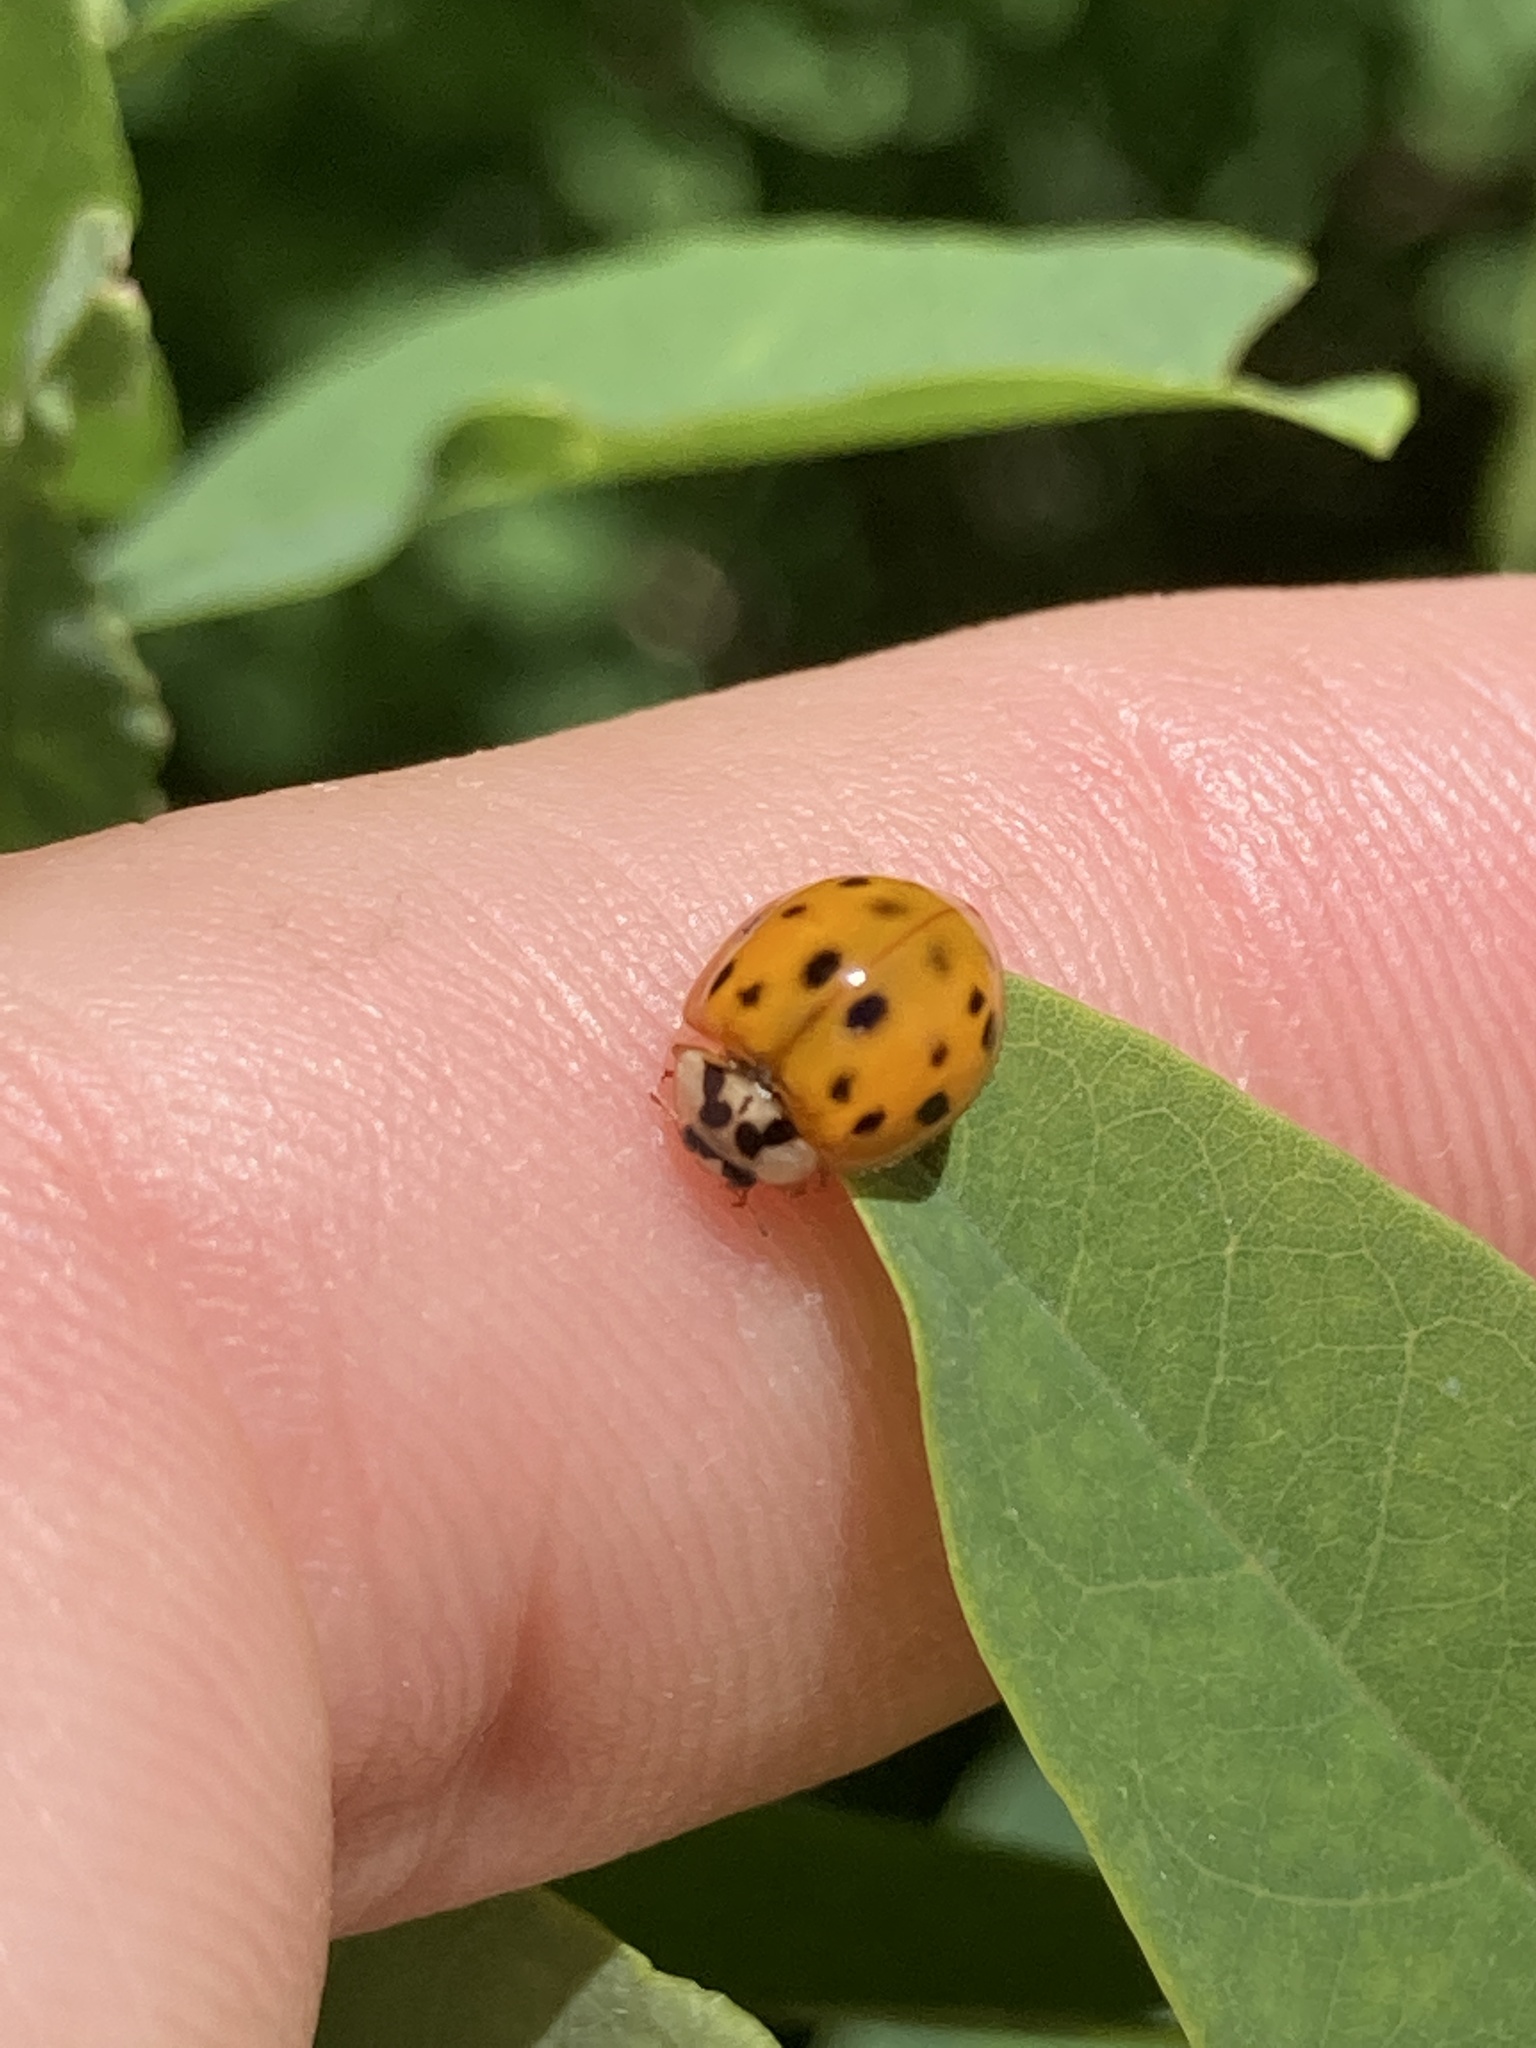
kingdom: Animalia
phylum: Arthropoda
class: Insecta
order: Coleoptera
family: Coccinellidae
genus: Harmonia
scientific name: Harmonia axyridis
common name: Harlequin ladybird
